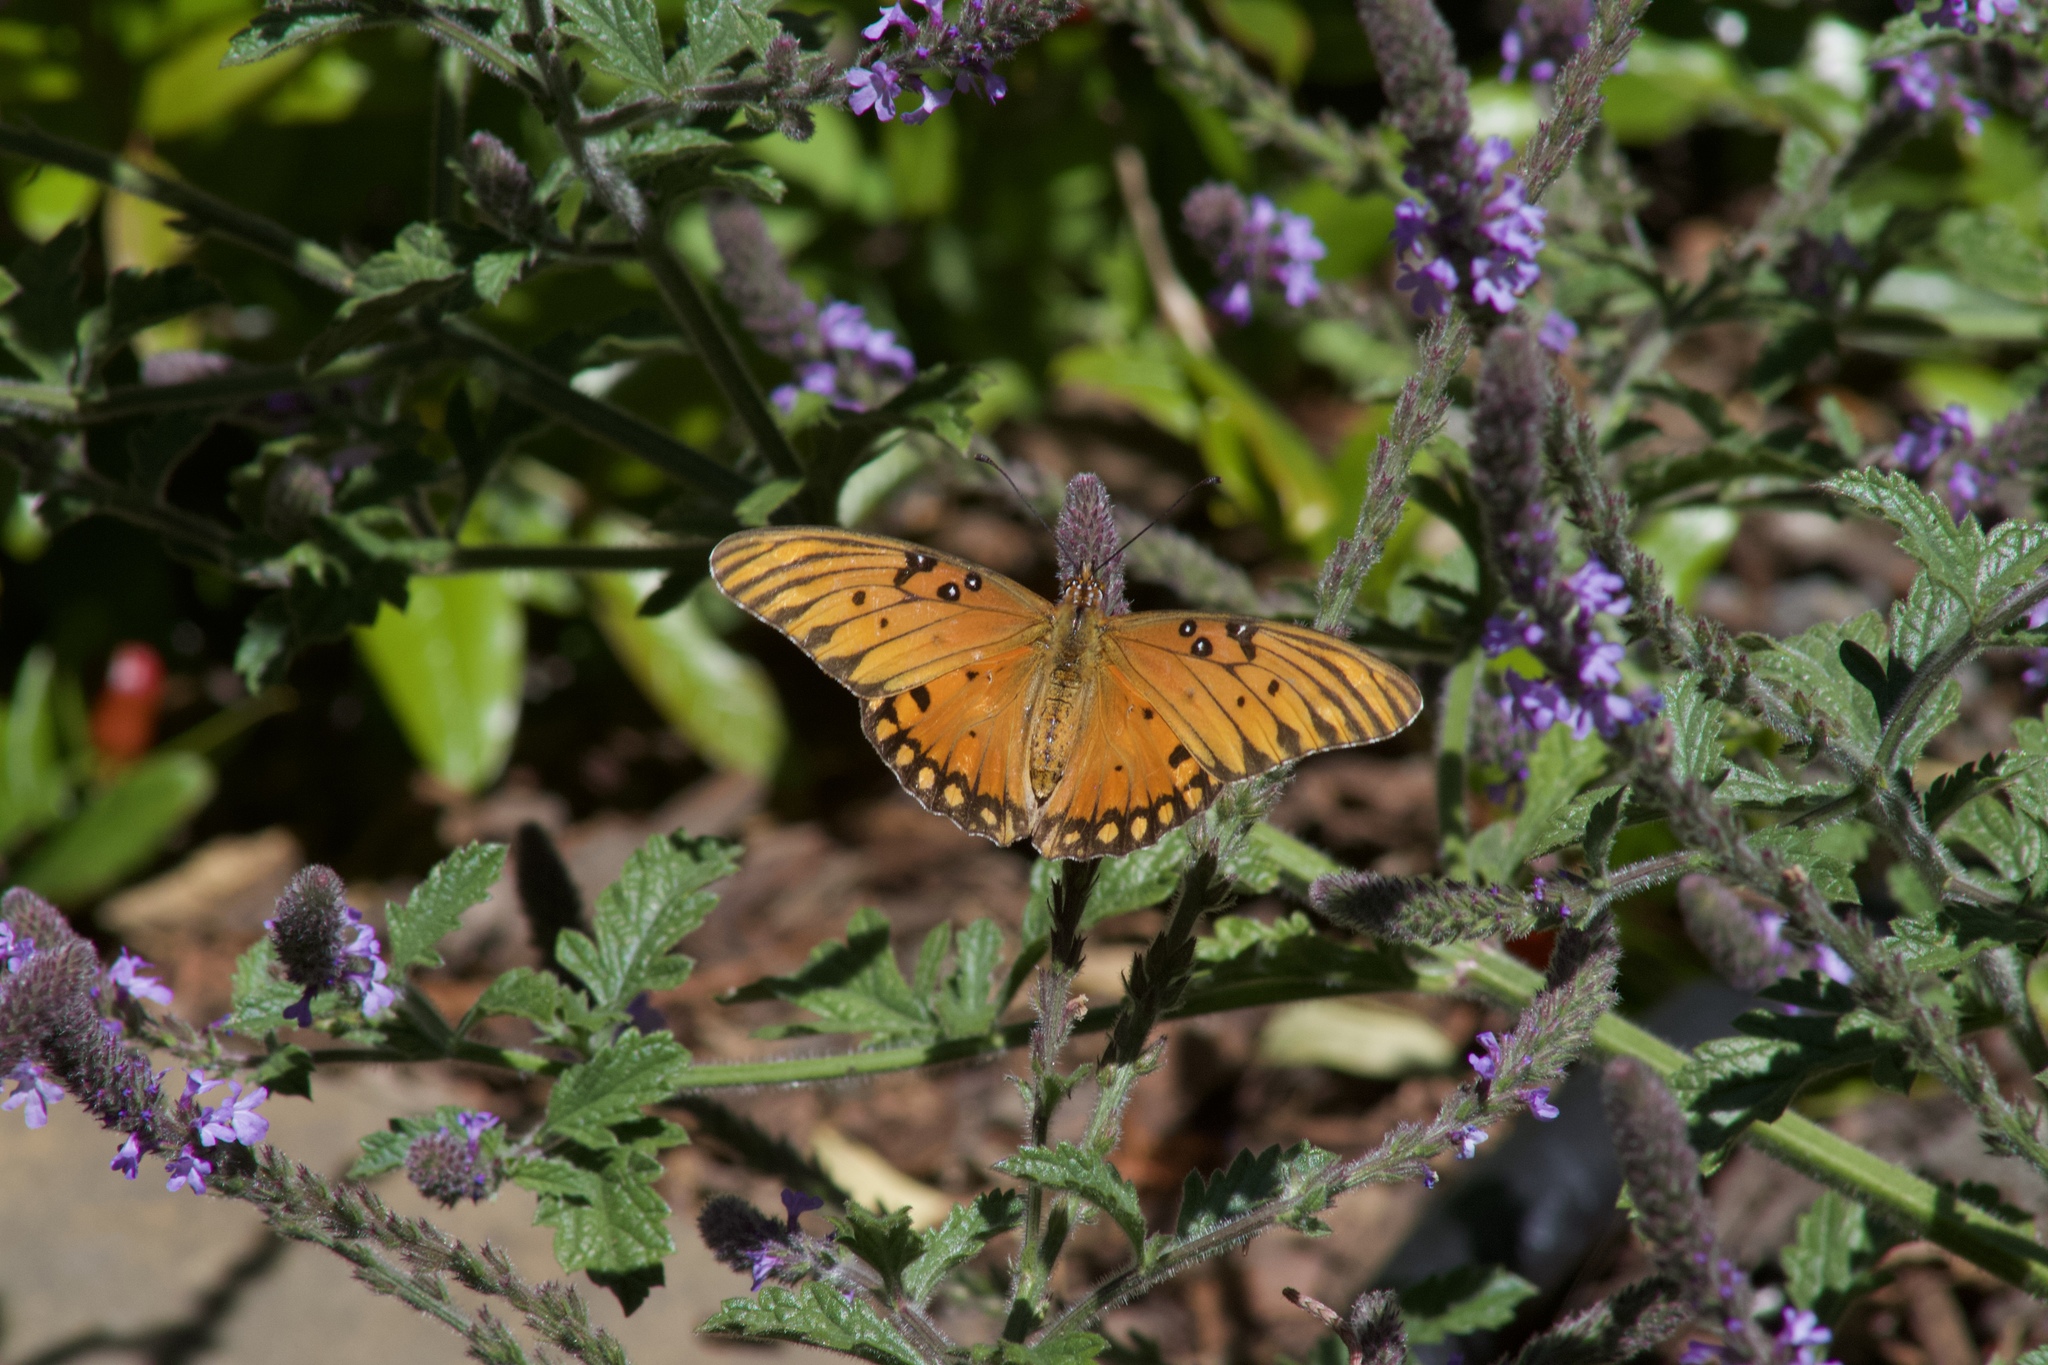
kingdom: Animalia
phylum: Arthropoda
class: Insecta
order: Lepidoptera
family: Nymphalidae
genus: Dione
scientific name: Dione vanillae
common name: Gulf fritillary
